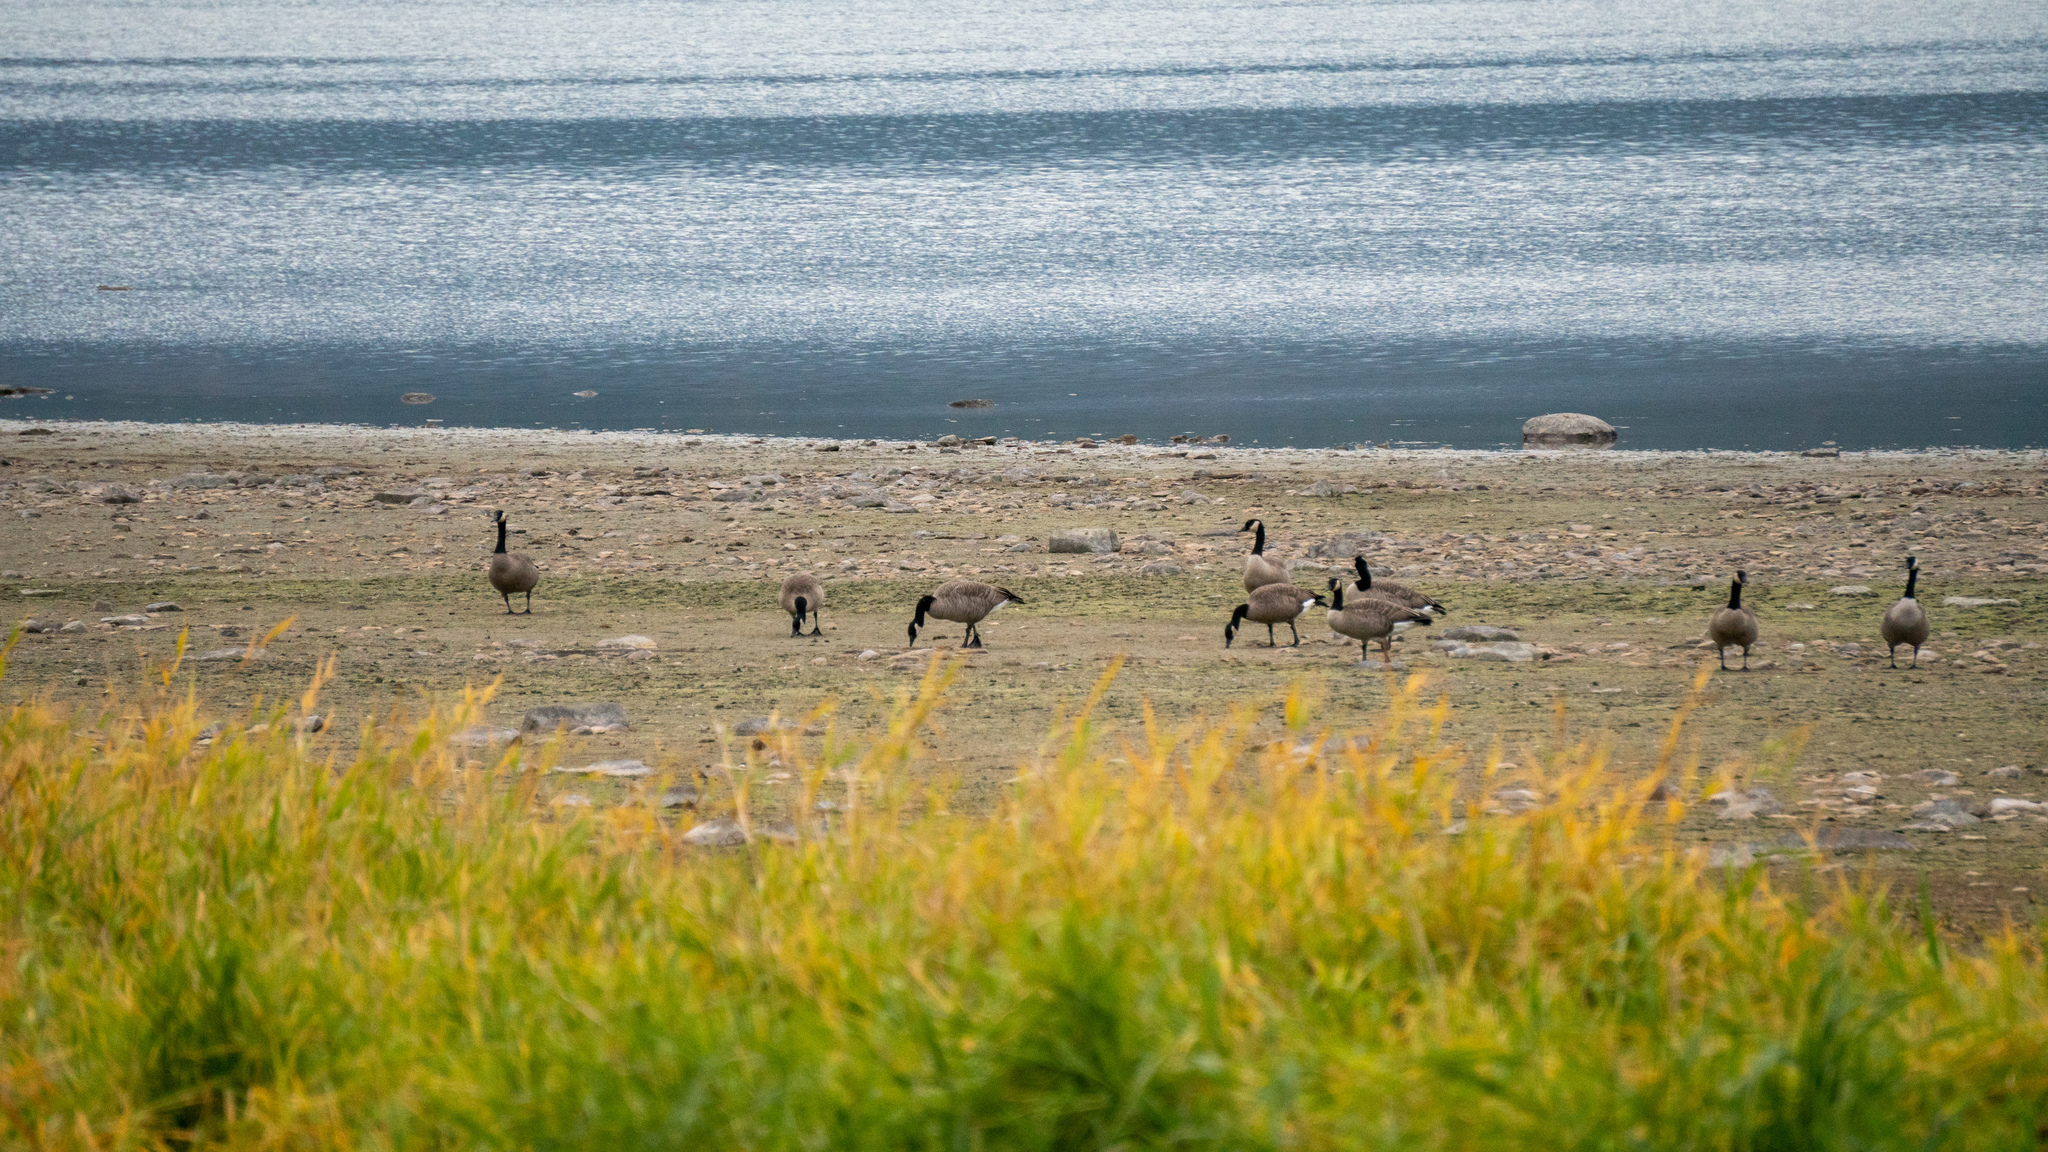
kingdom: Animalia
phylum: Chordata
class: Aves
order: Anseriformes
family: Anatidae
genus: Branta
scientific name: Branta canadensis
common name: Canada goose
